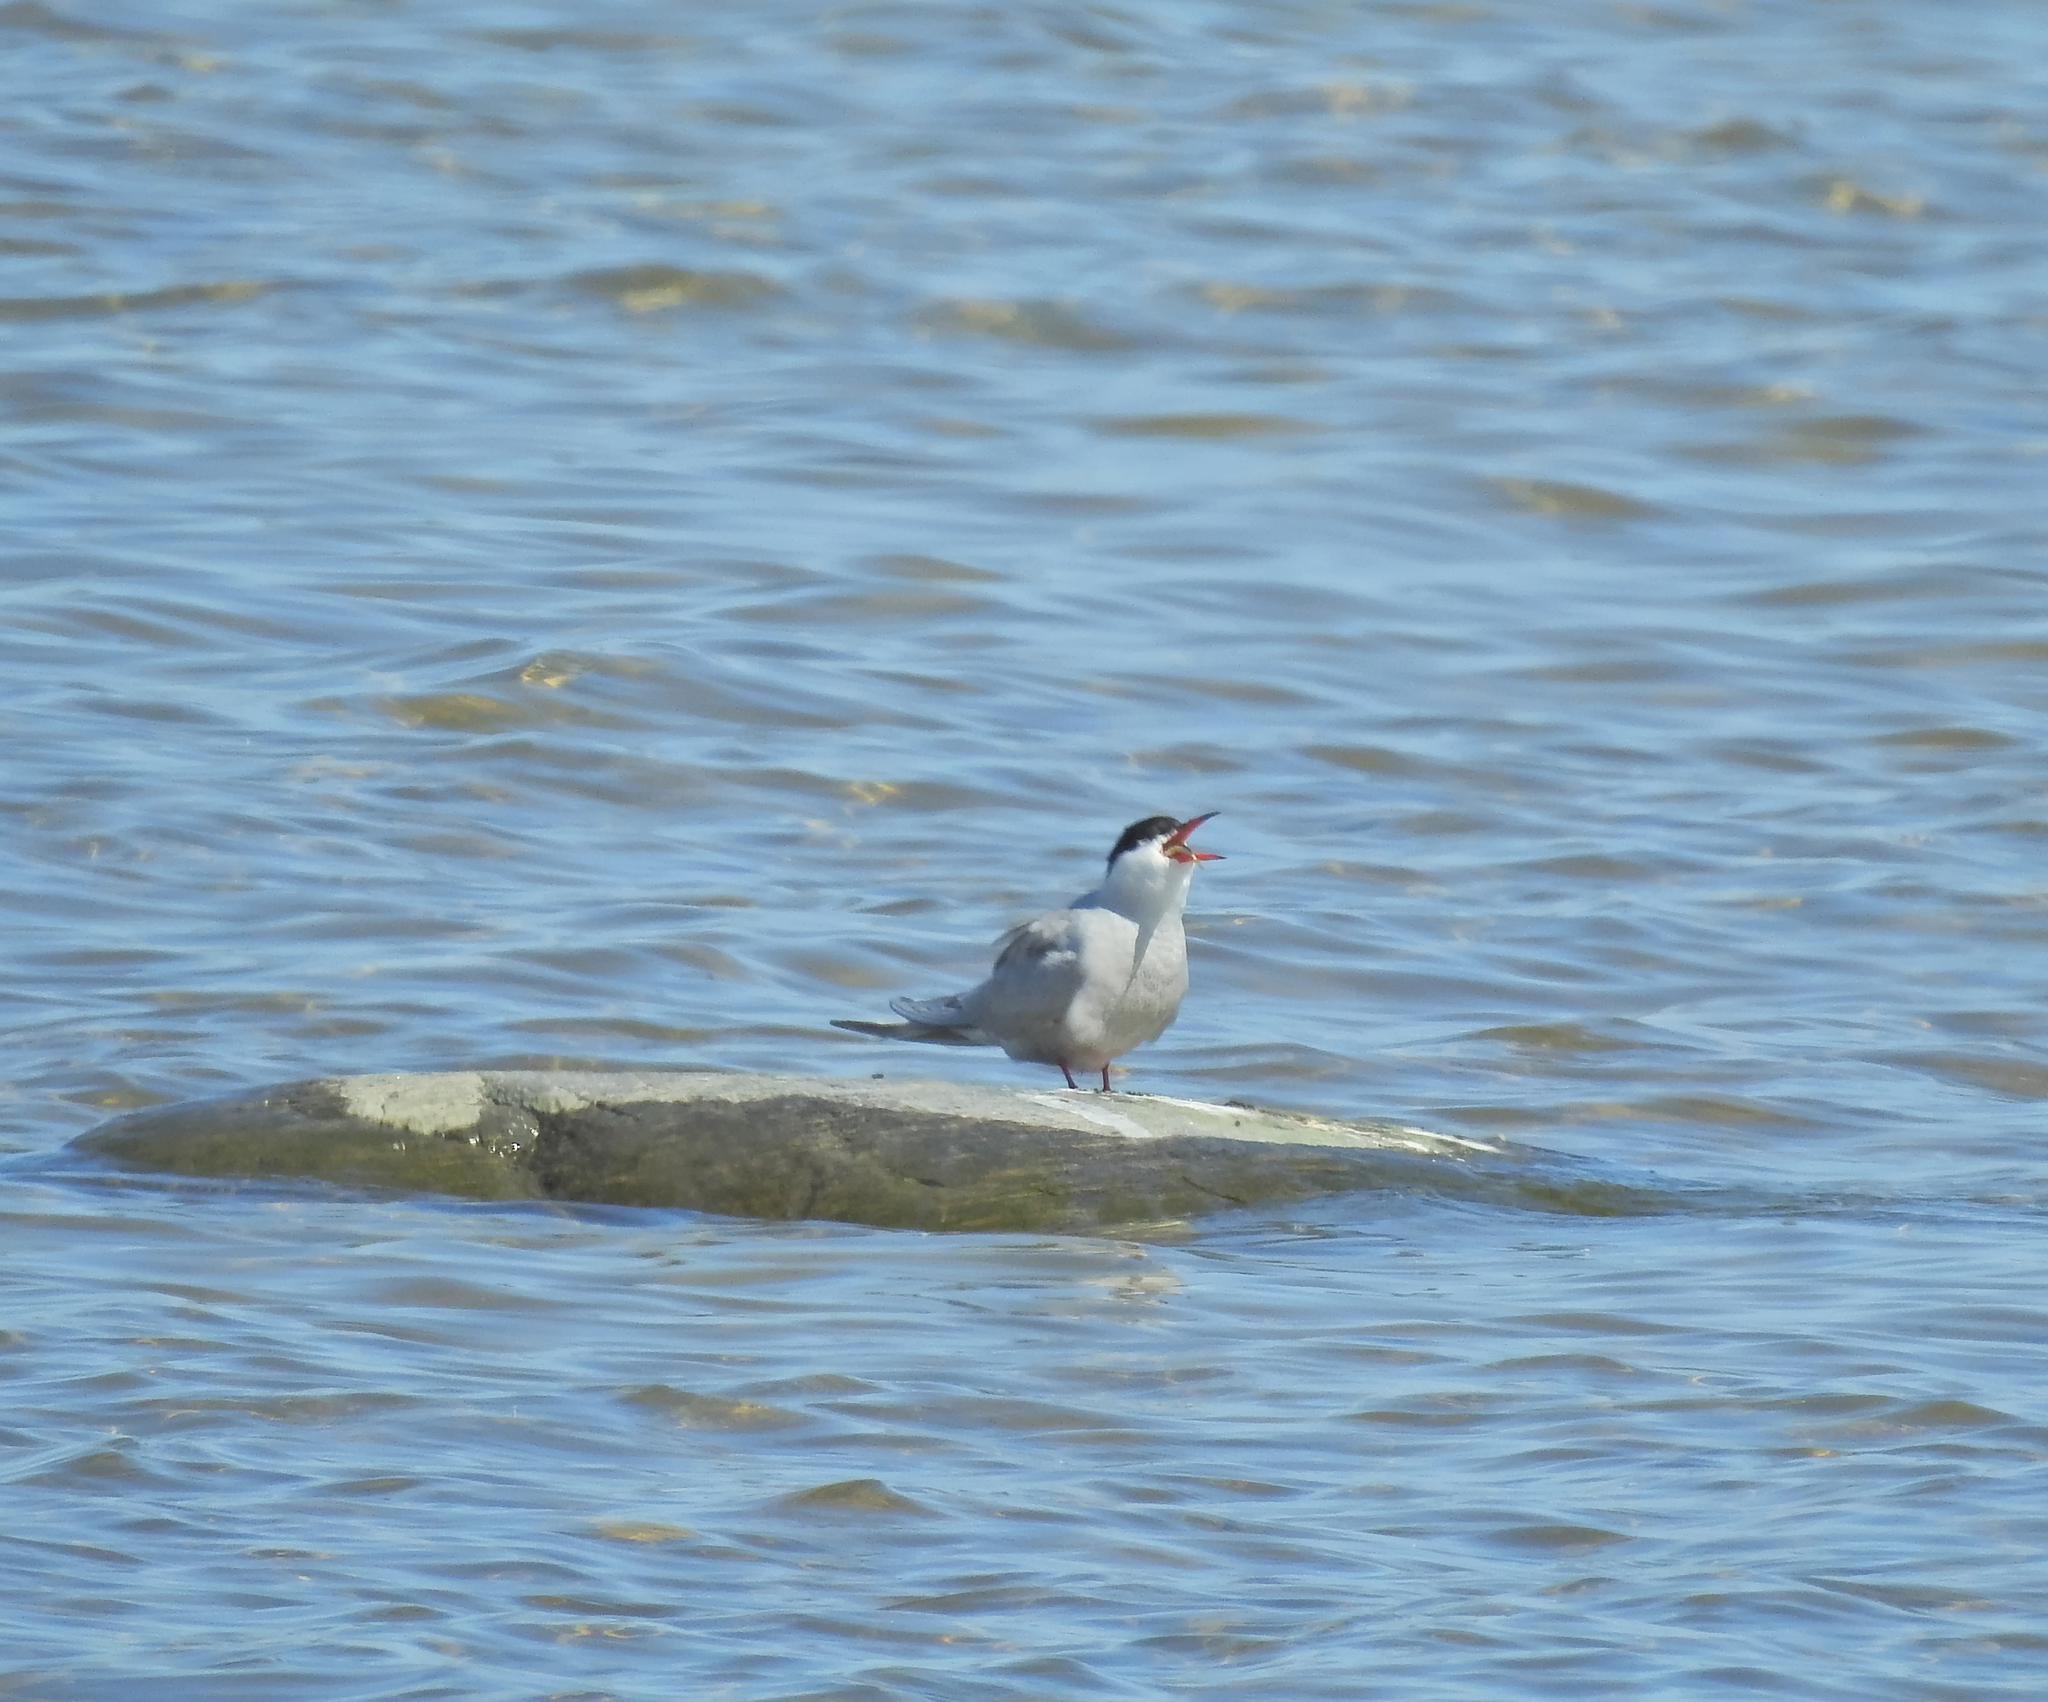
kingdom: Animalia
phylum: Chordata
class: Aves
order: Charadriiformes
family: Laridae
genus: Sterna
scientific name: Sterna hirundo
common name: Common tern
